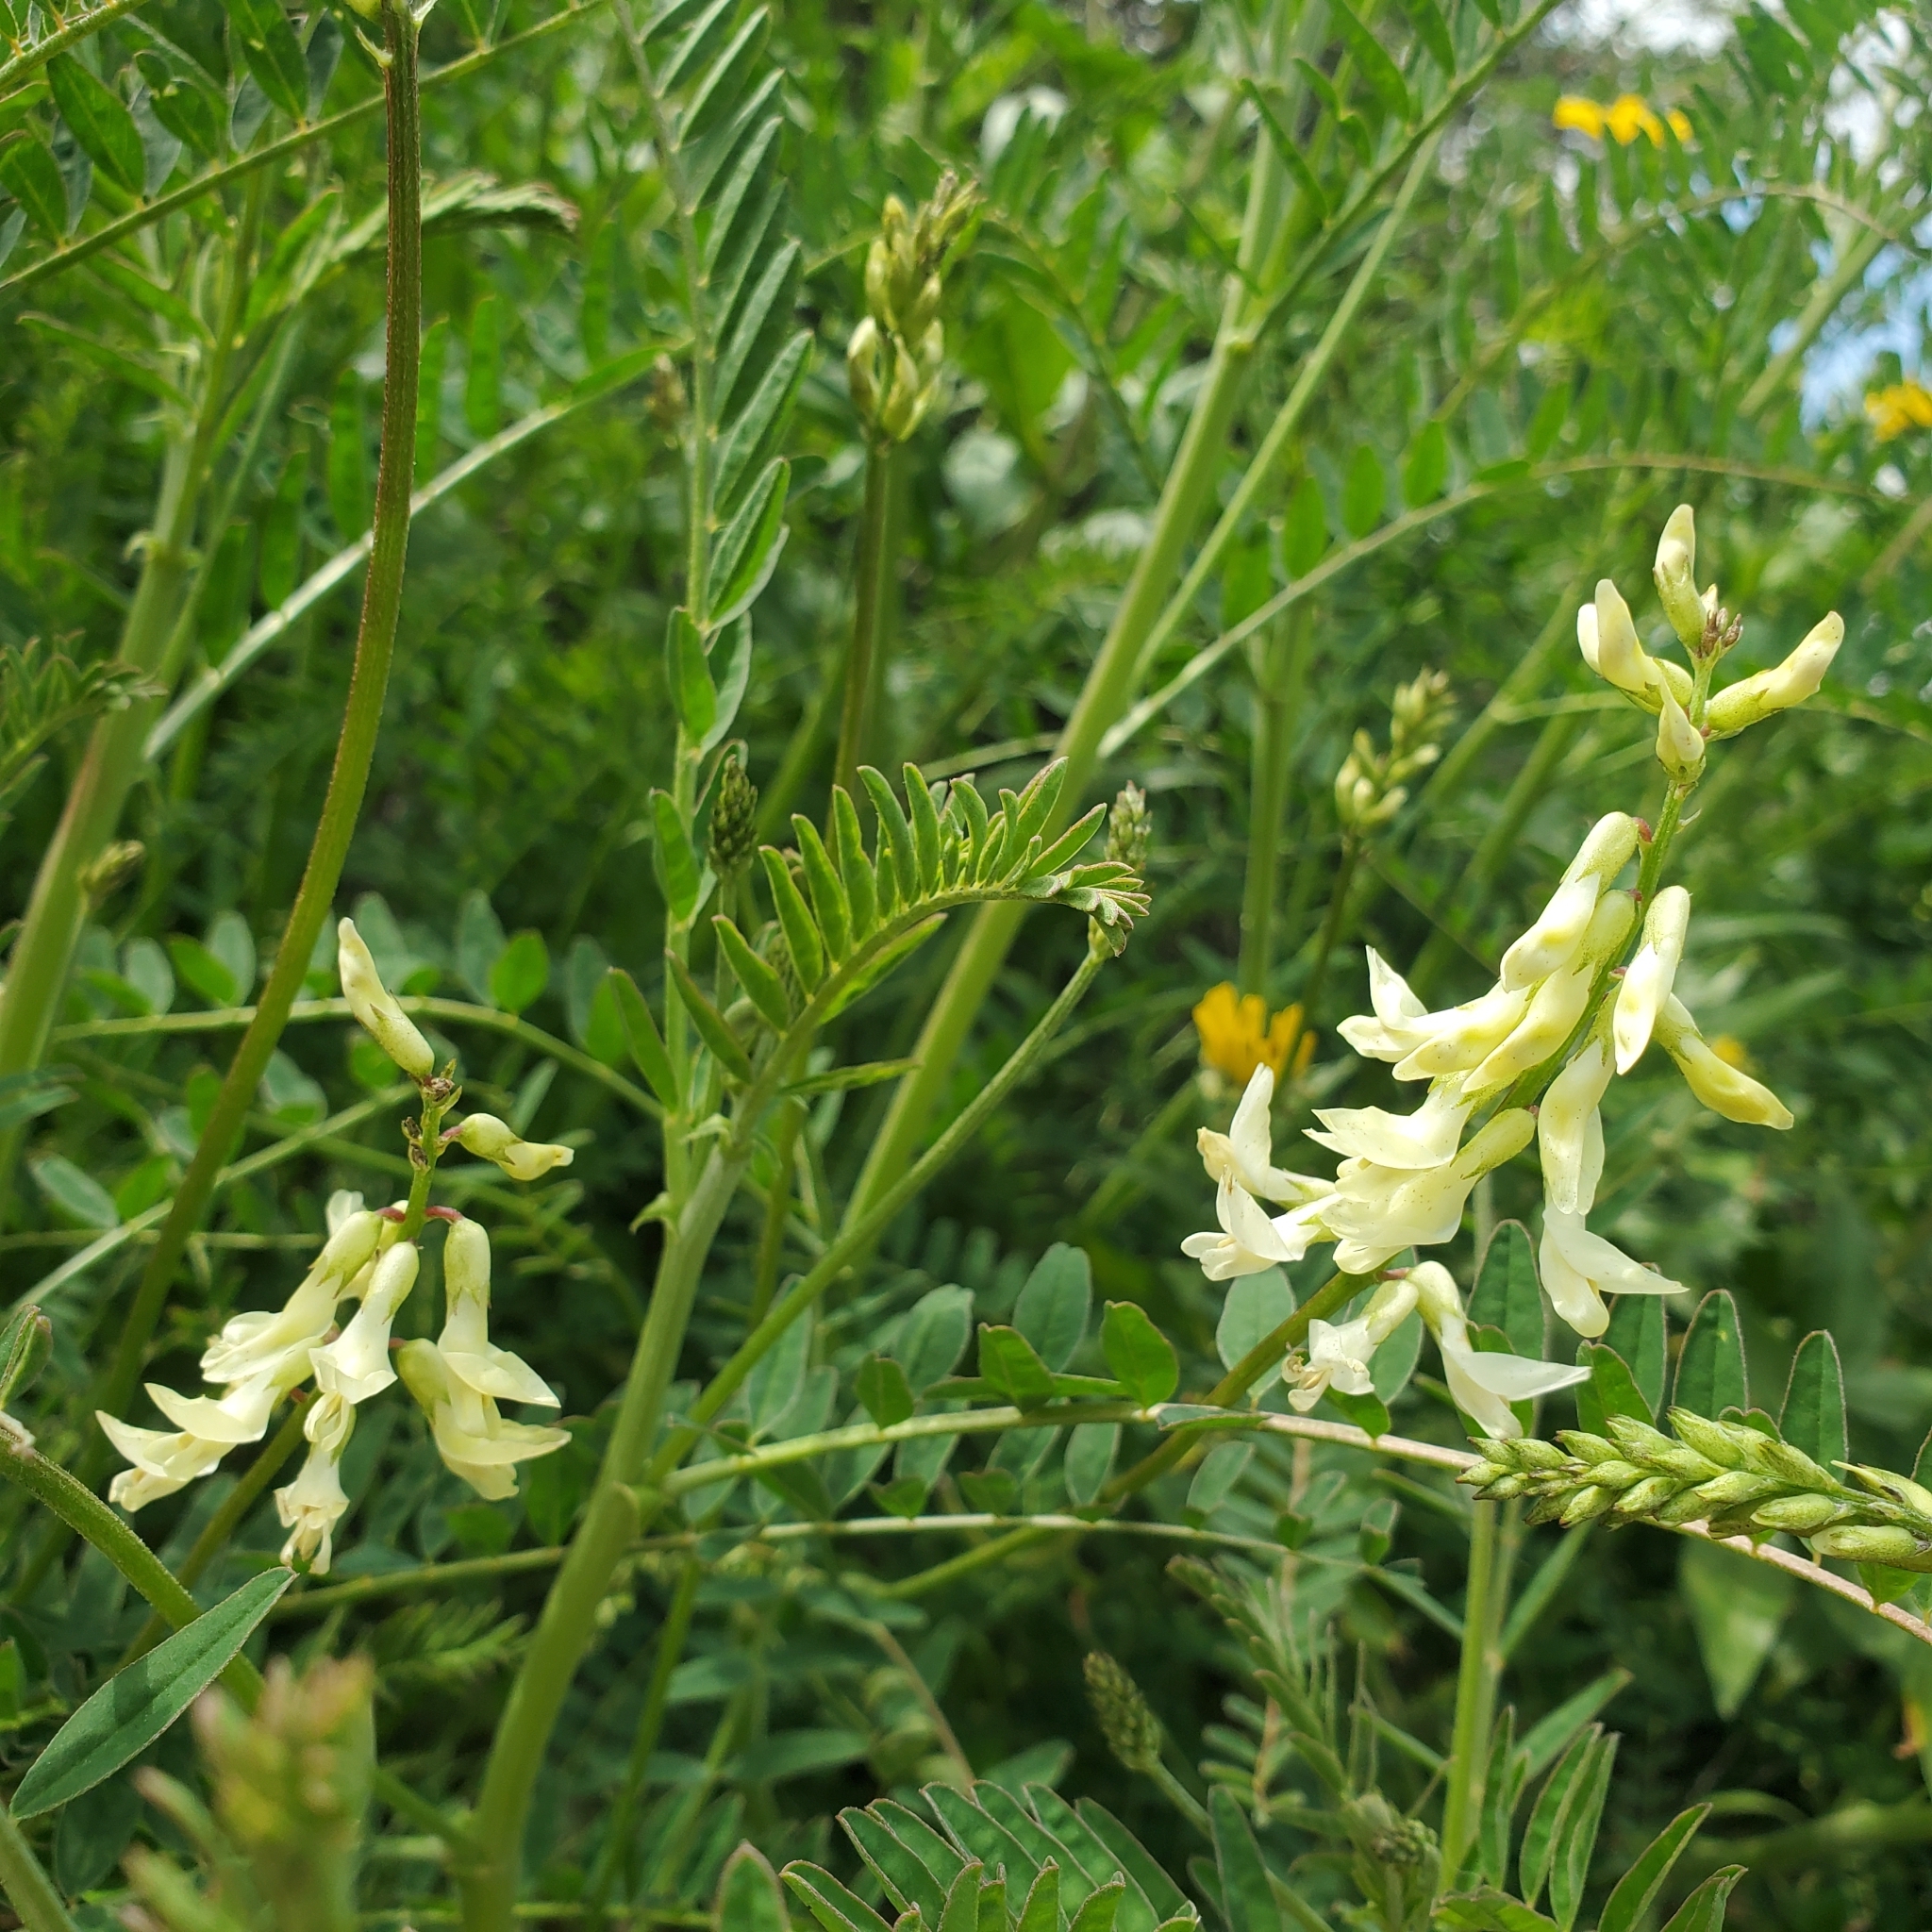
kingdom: Plantae
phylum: Tracheophyta
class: Magnoliopsida
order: Fabales
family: Fabaceae
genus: Astragalus
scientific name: Astragalus trichopodus
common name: Santa barbara milk-vetch
